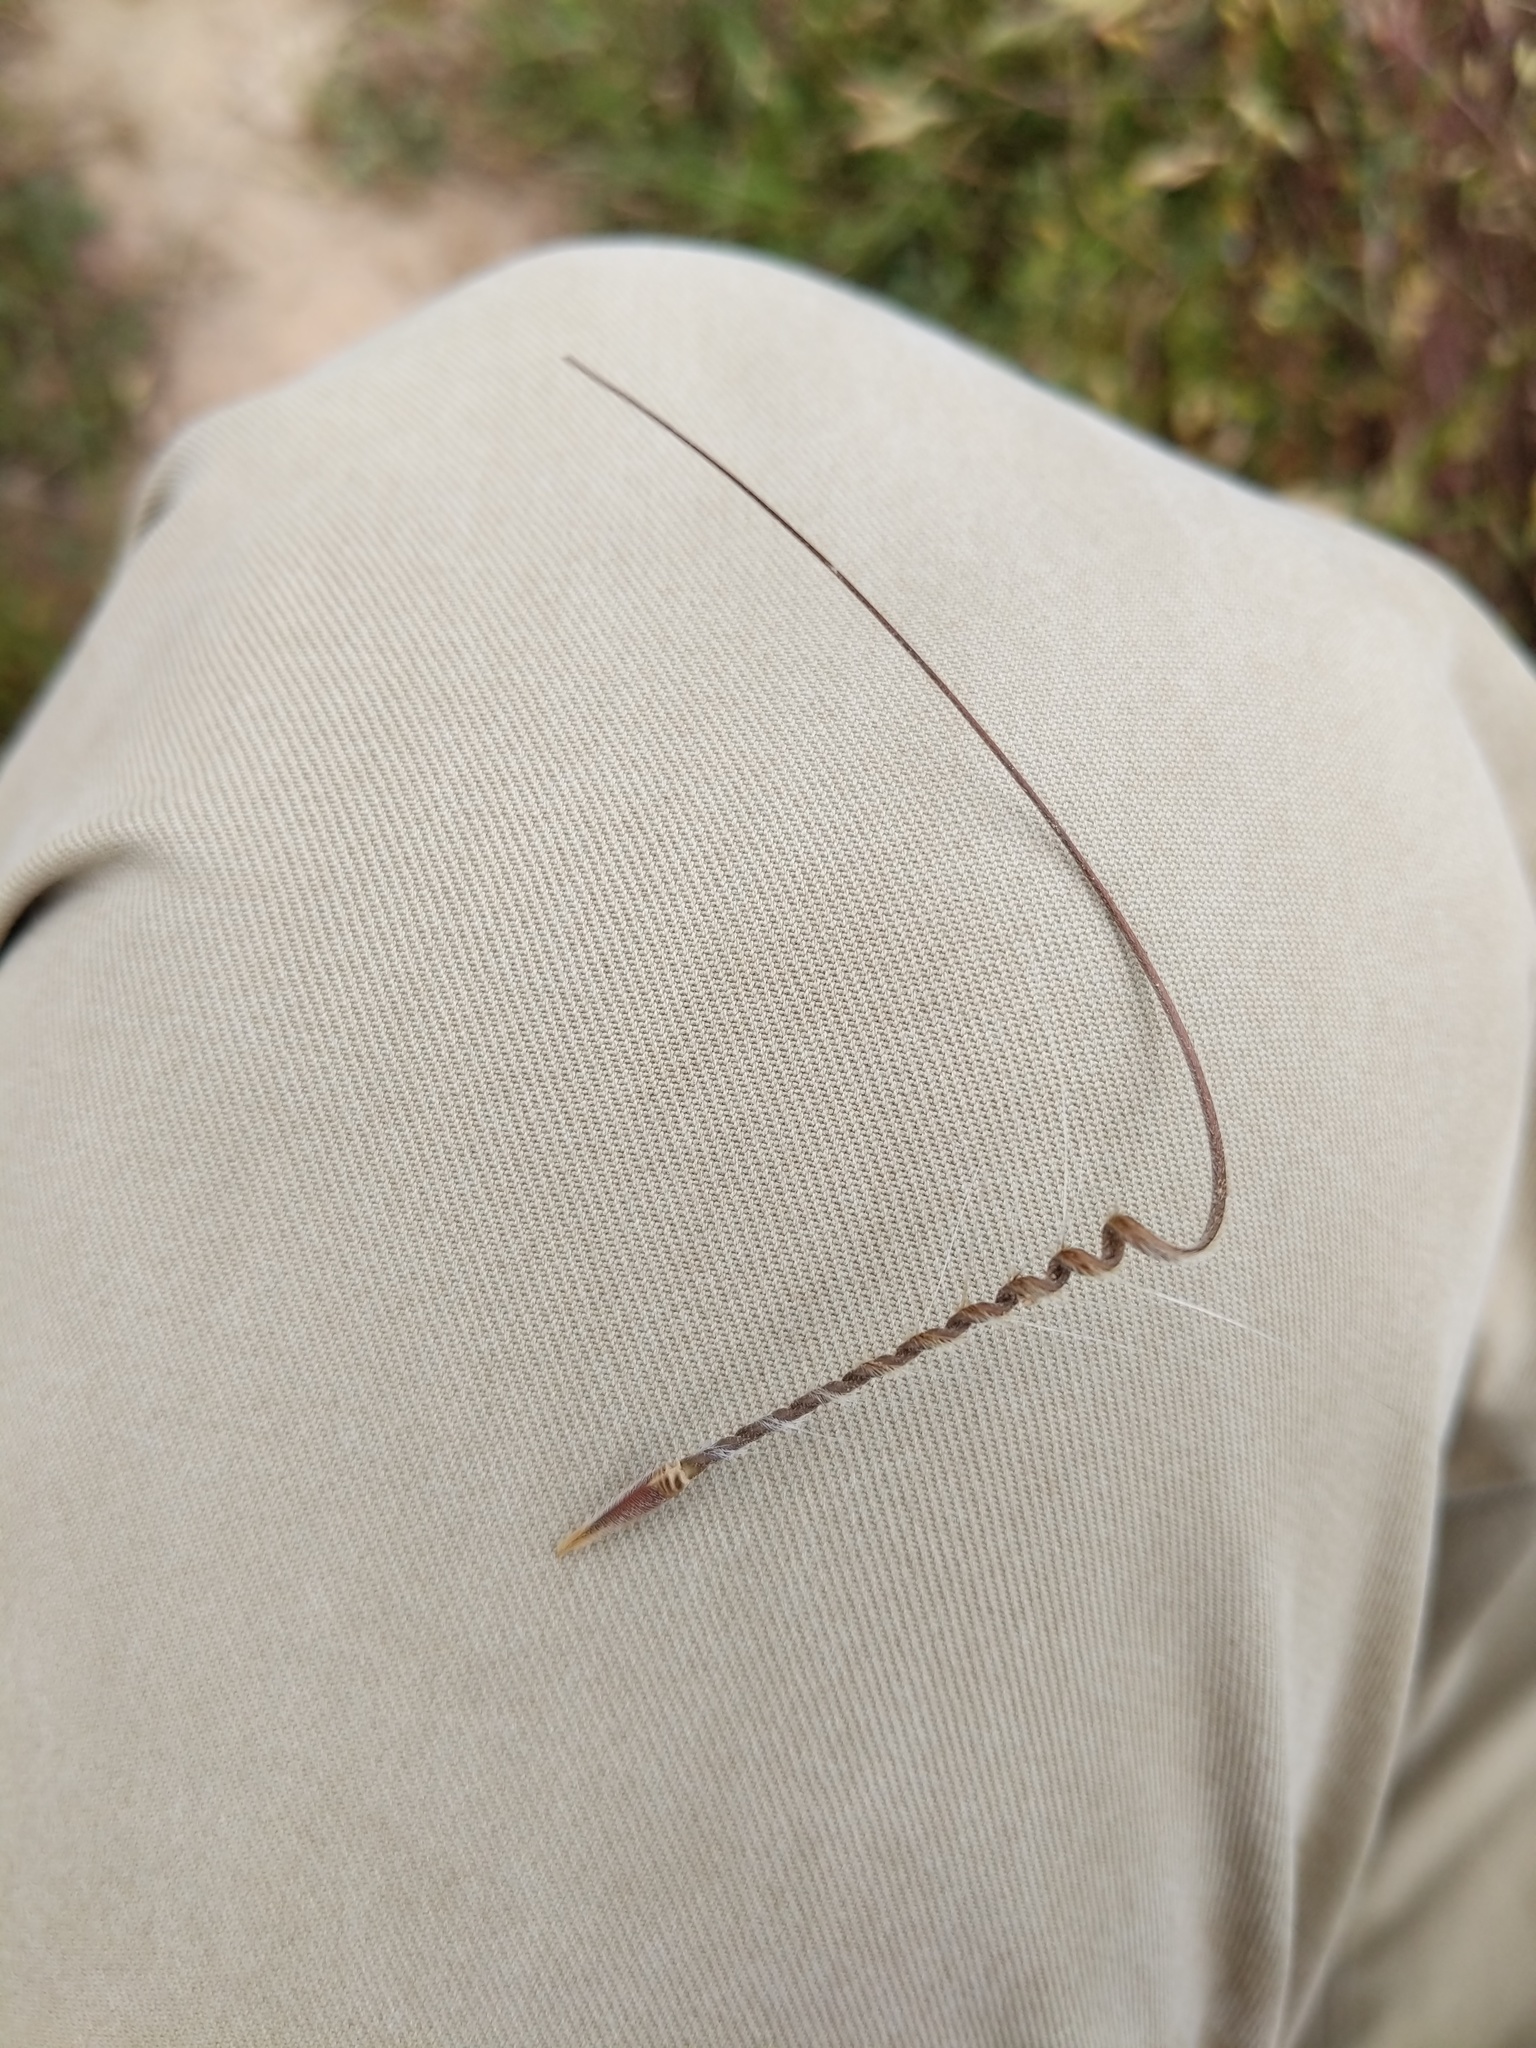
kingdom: Plantae
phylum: Tracheophyta
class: Magnoliopsida
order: Geraniales
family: Geraniaceae
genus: Erodium
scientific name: Erodium botrys
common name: Mediterranean stork's-bill
